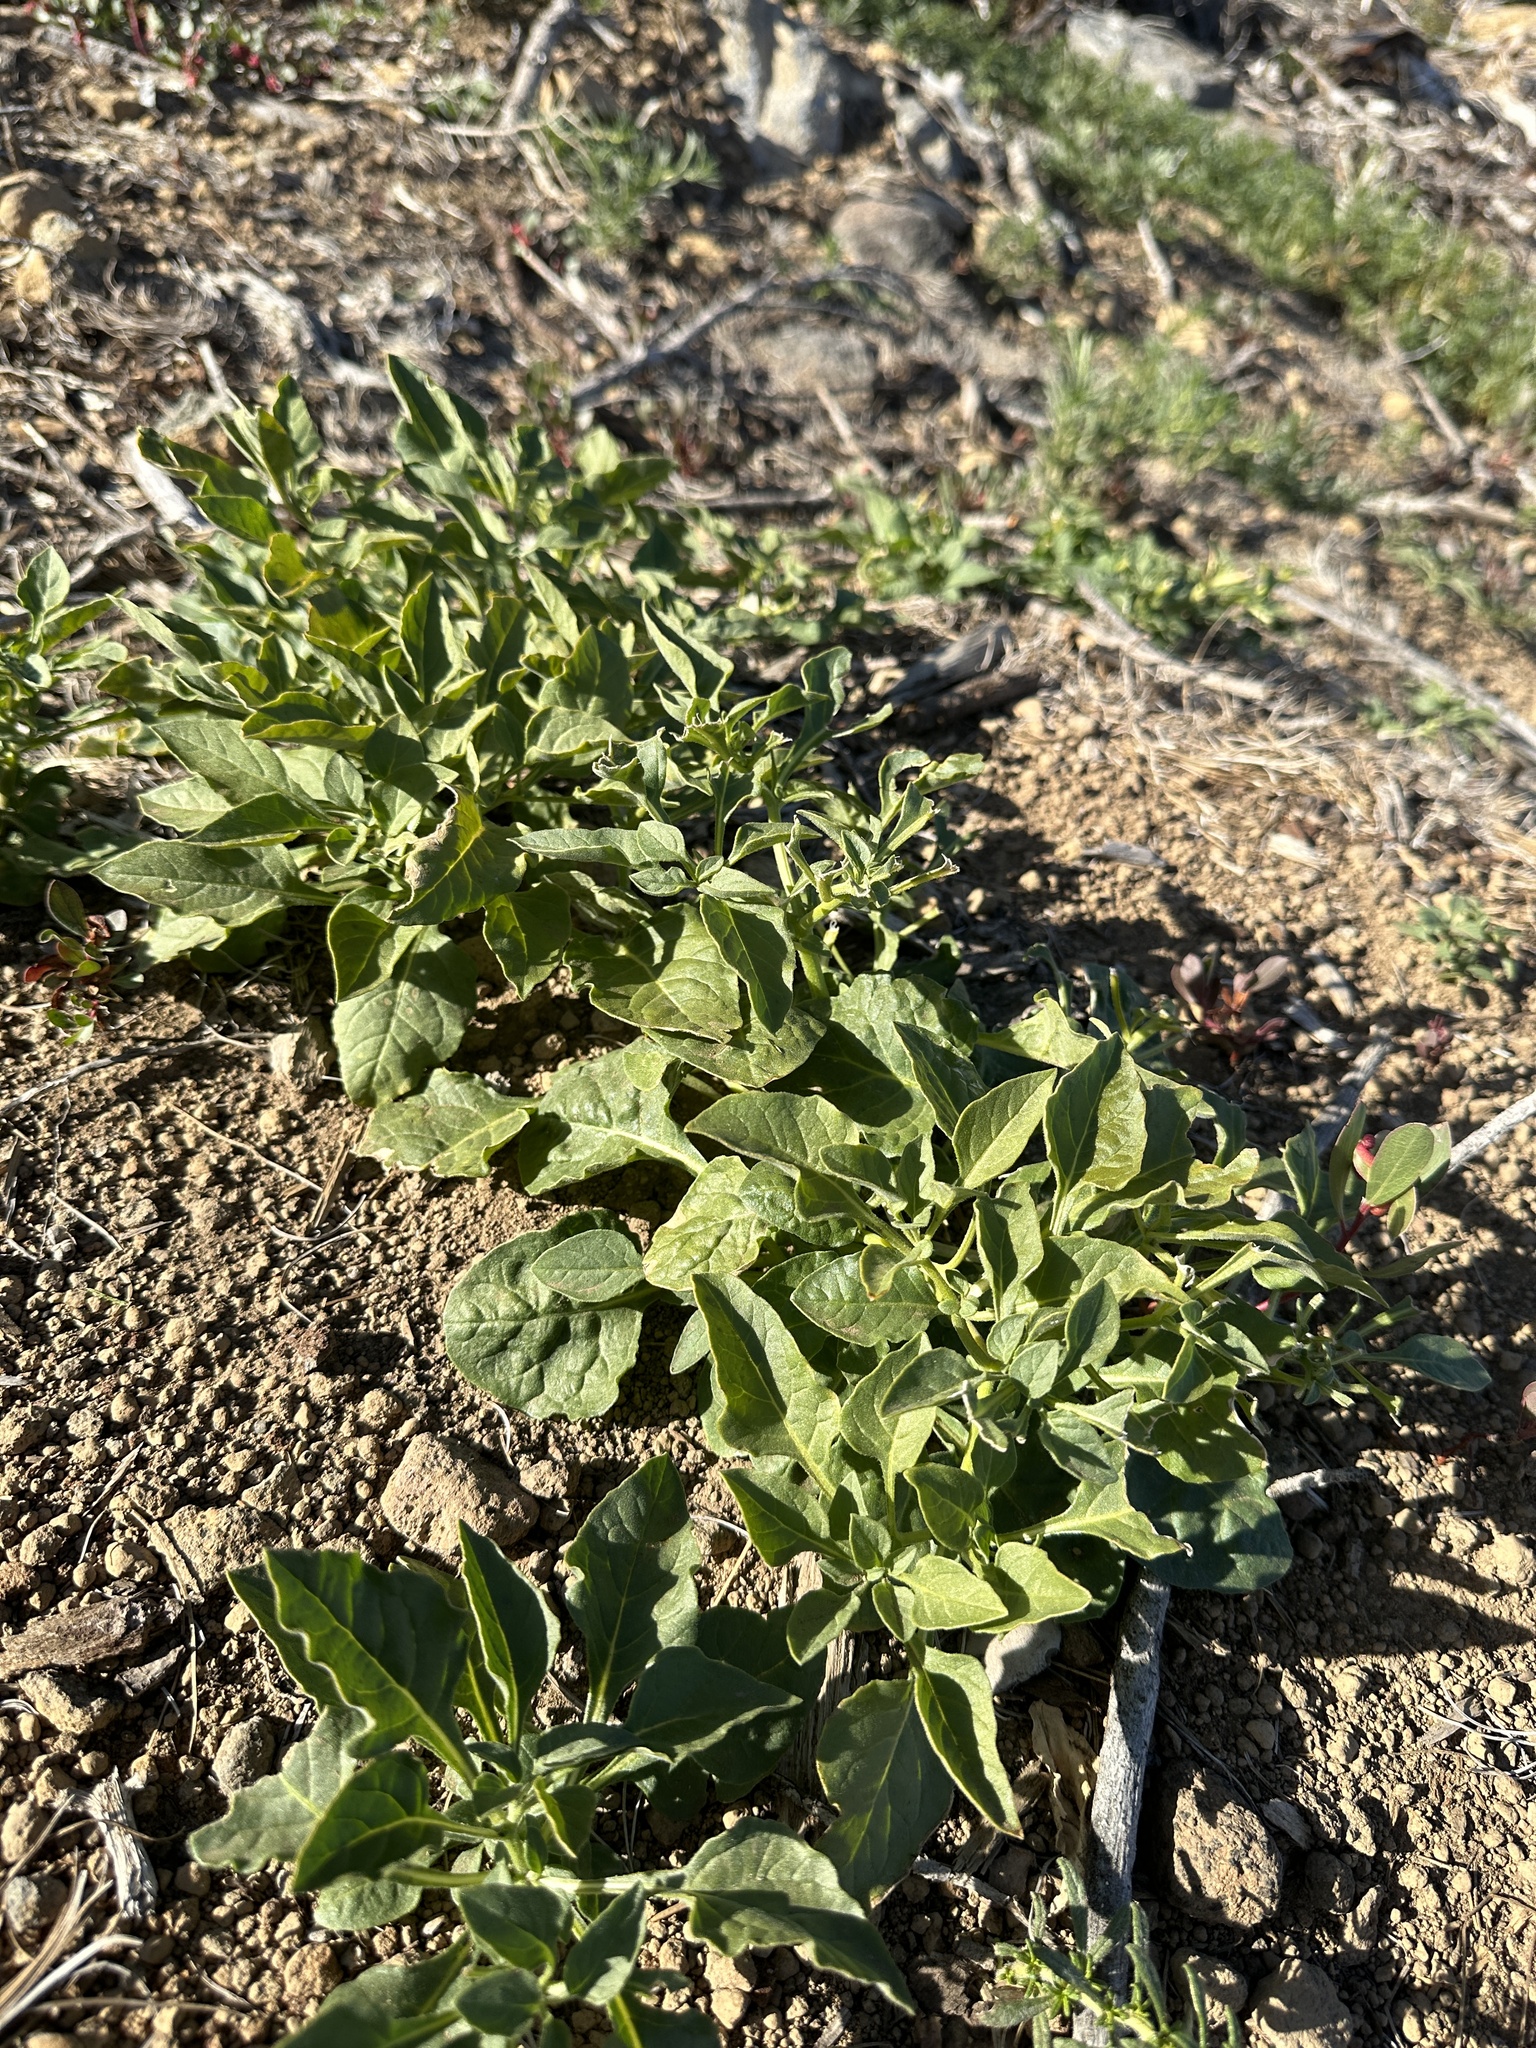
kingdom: Plantae
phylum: Tracheophyta
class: Magnoliopsida
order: Solanales
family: Solanaceae
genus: Leucophysalis
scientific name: Leucophysalis nana
